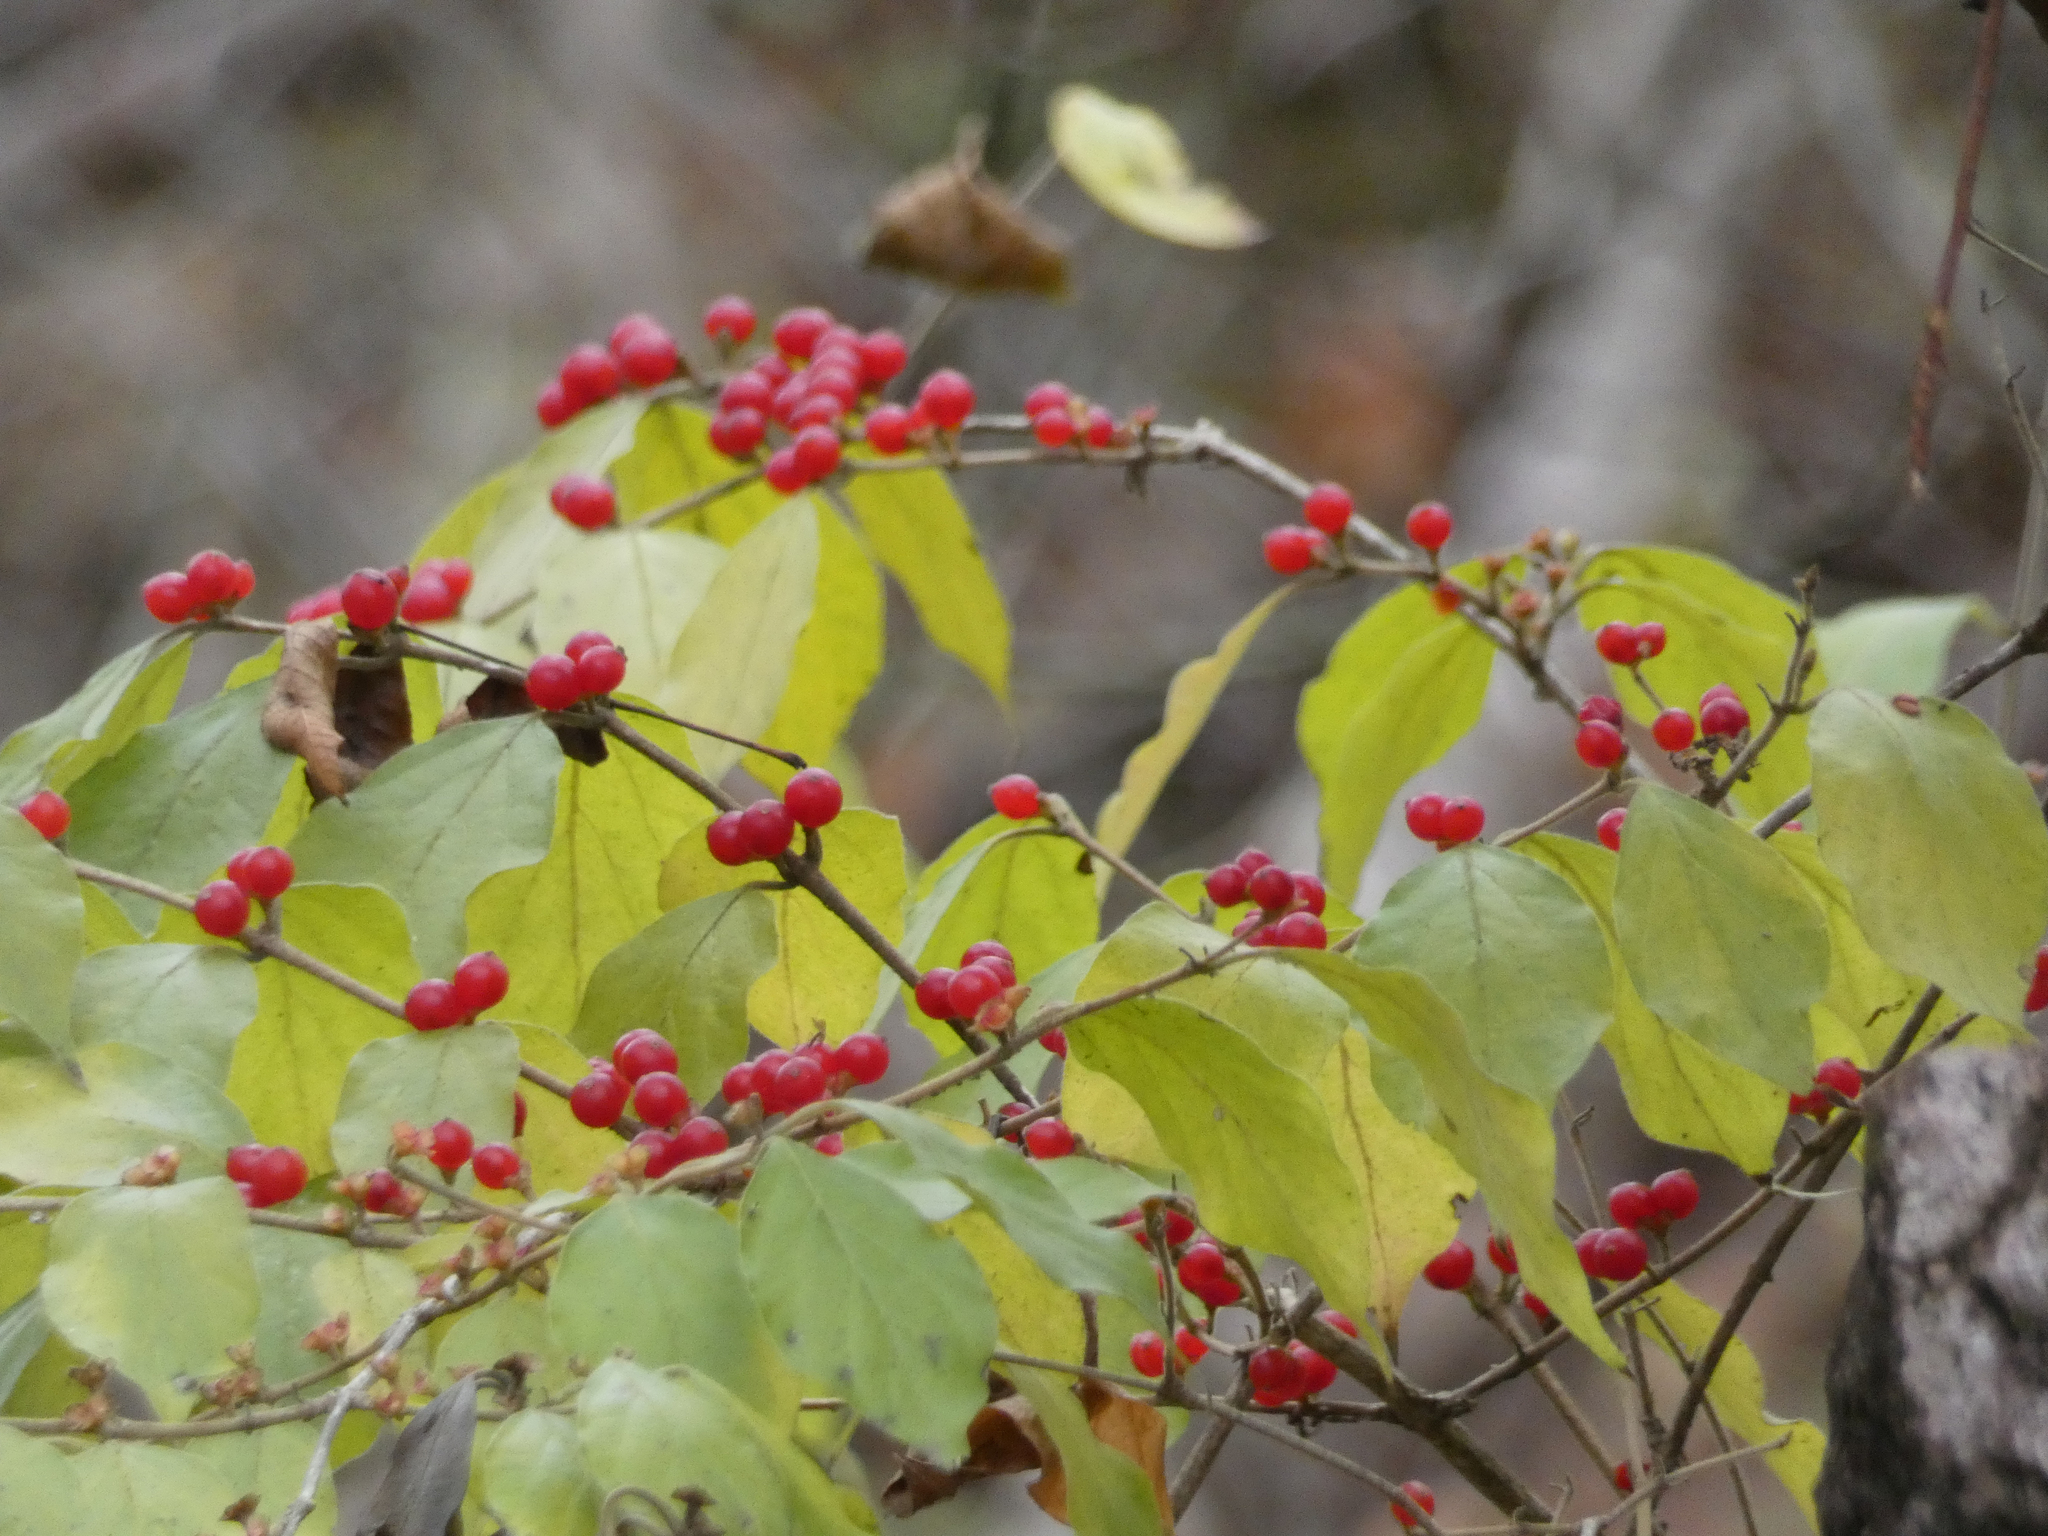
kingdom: Plantae
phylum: Tracheophyta
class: Magnoliopsida
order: Dipsacales
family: Caprifoliaceae
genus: Lonicera
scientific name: Lonicera maackii
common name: Amur honeysuckle
